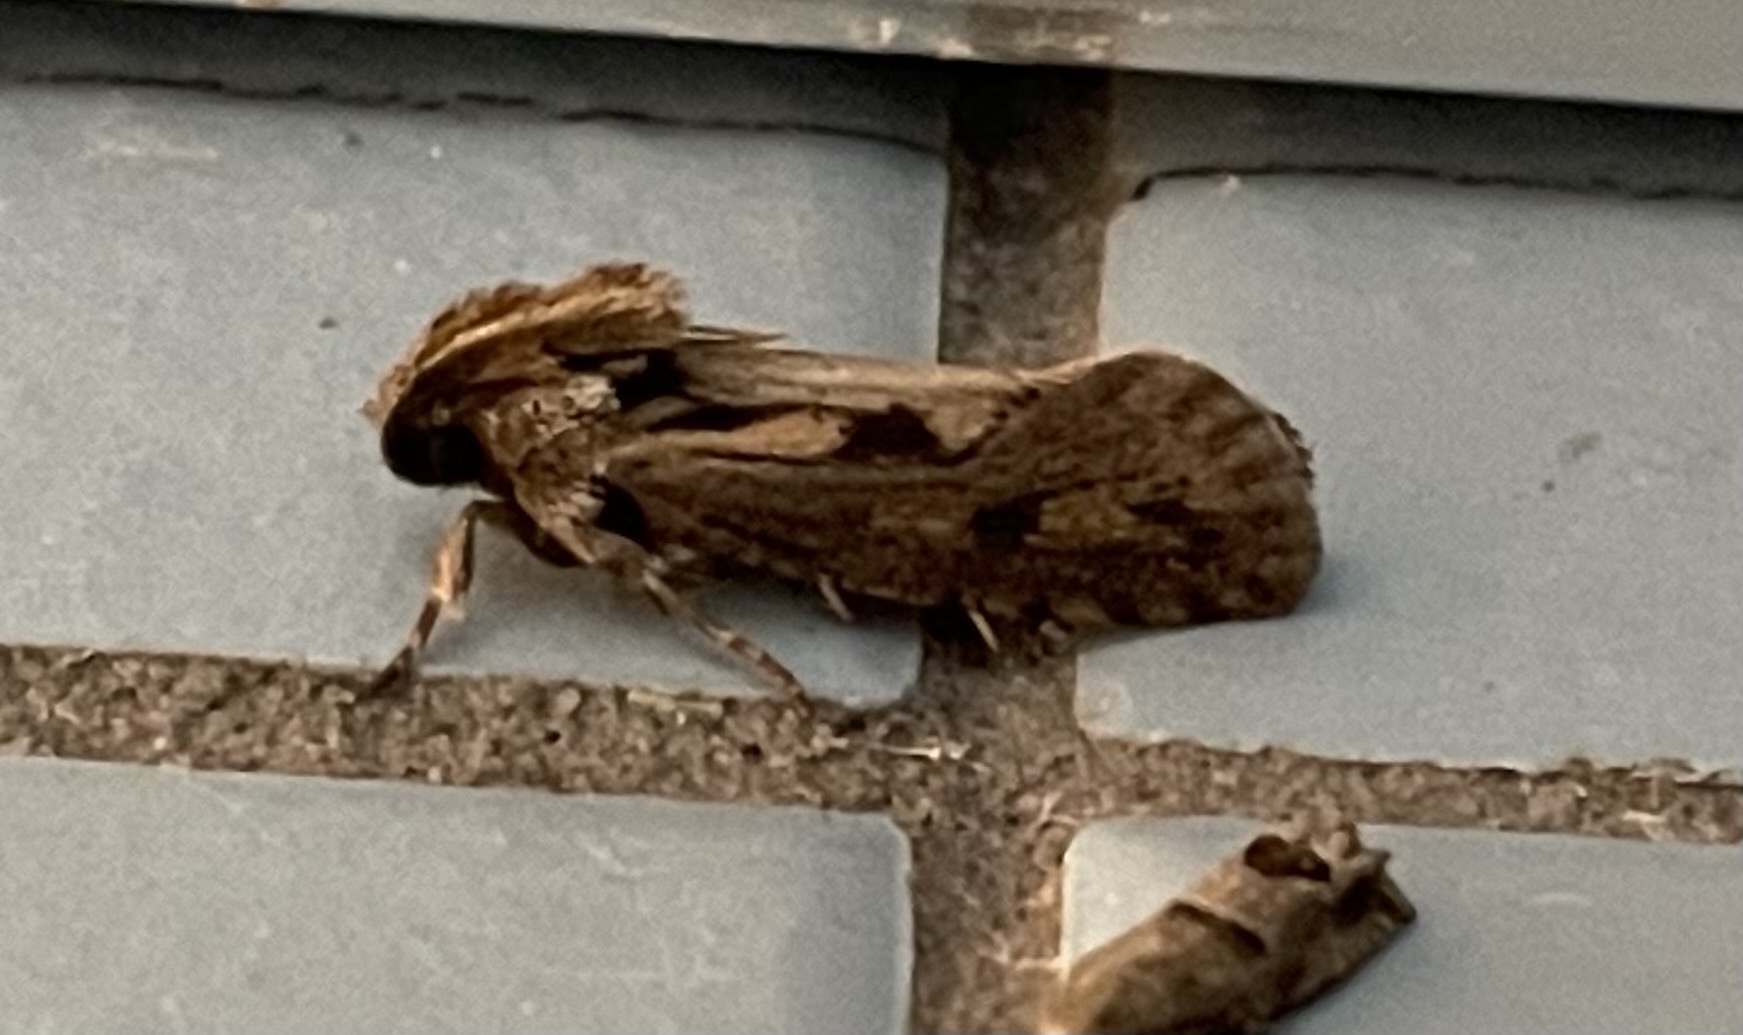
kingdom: Animalia
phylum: Arthropoda
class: Insecta
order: Lepidoptera
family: Tineidae
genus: Acrolophus
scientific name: Acrolophus popeanella
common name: Clemens' grass tubeworm moth
